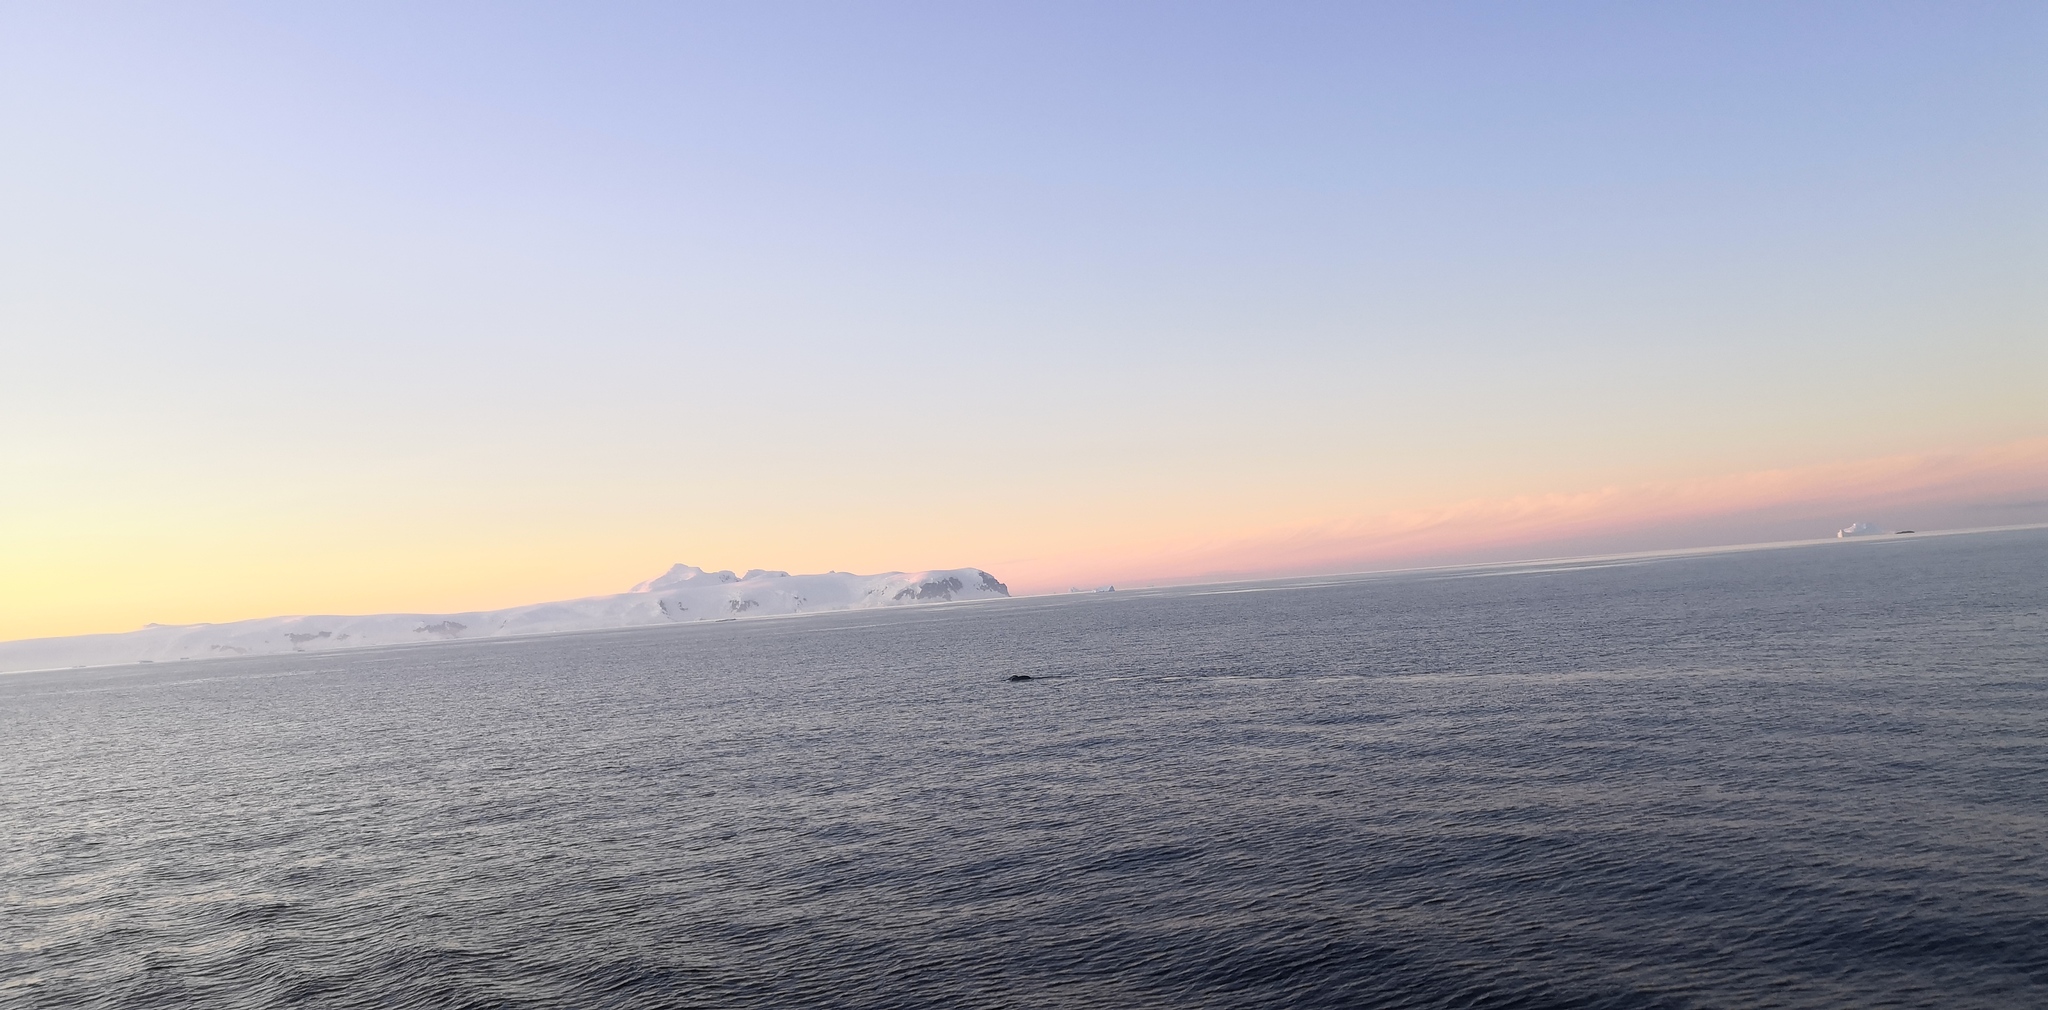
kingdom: Animalia
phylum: Chordata
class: Mammalia
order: Cetacea
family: Balaenopteridae
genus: Megaptera
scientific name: Megaptera novaeangliae
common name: Humpback whale
